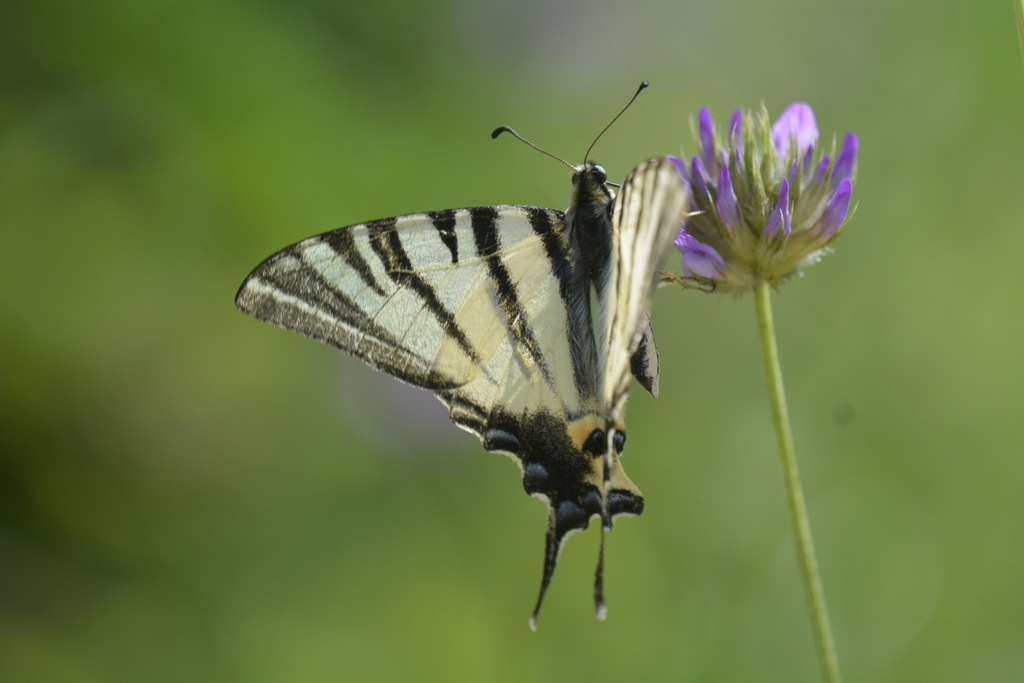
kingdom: Animalia
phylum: Arthropoda
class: Insecta
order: Lepidoptera
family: Papilionidae
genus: Iphiclides
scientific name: Iphiclides podalirius
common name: Scarce swallowtail
